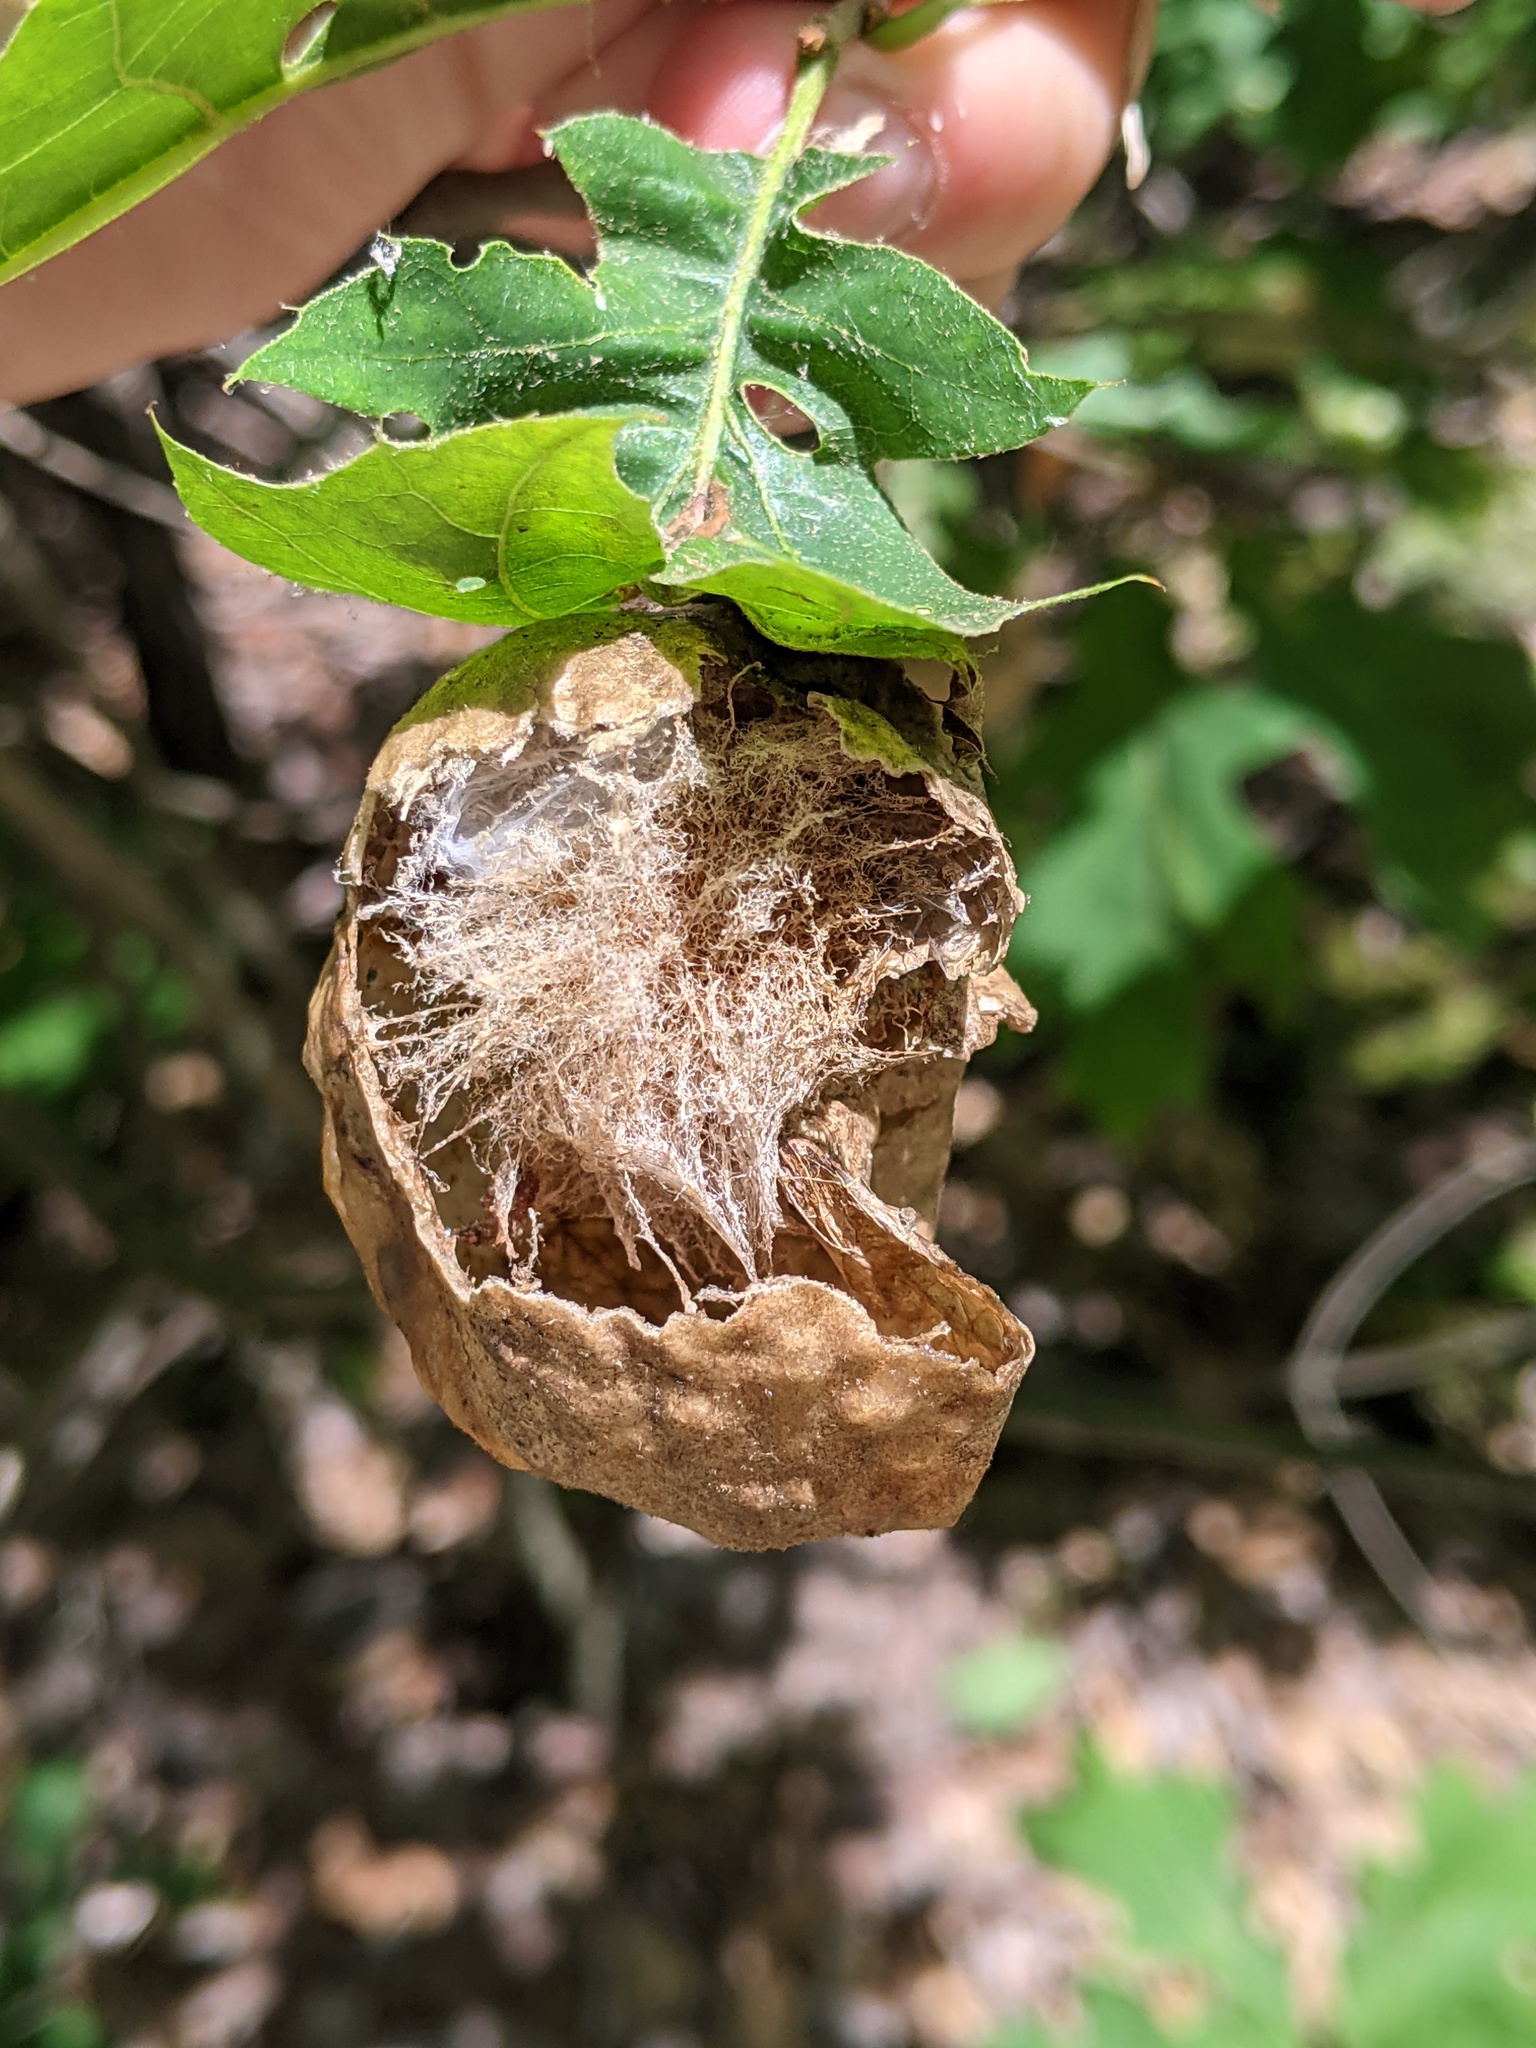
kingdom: Animalia
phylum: Arthropoda
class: Insecta
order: Hymenoptera
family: Cynipidae
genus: Amphibolips
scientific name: Amphibolips
